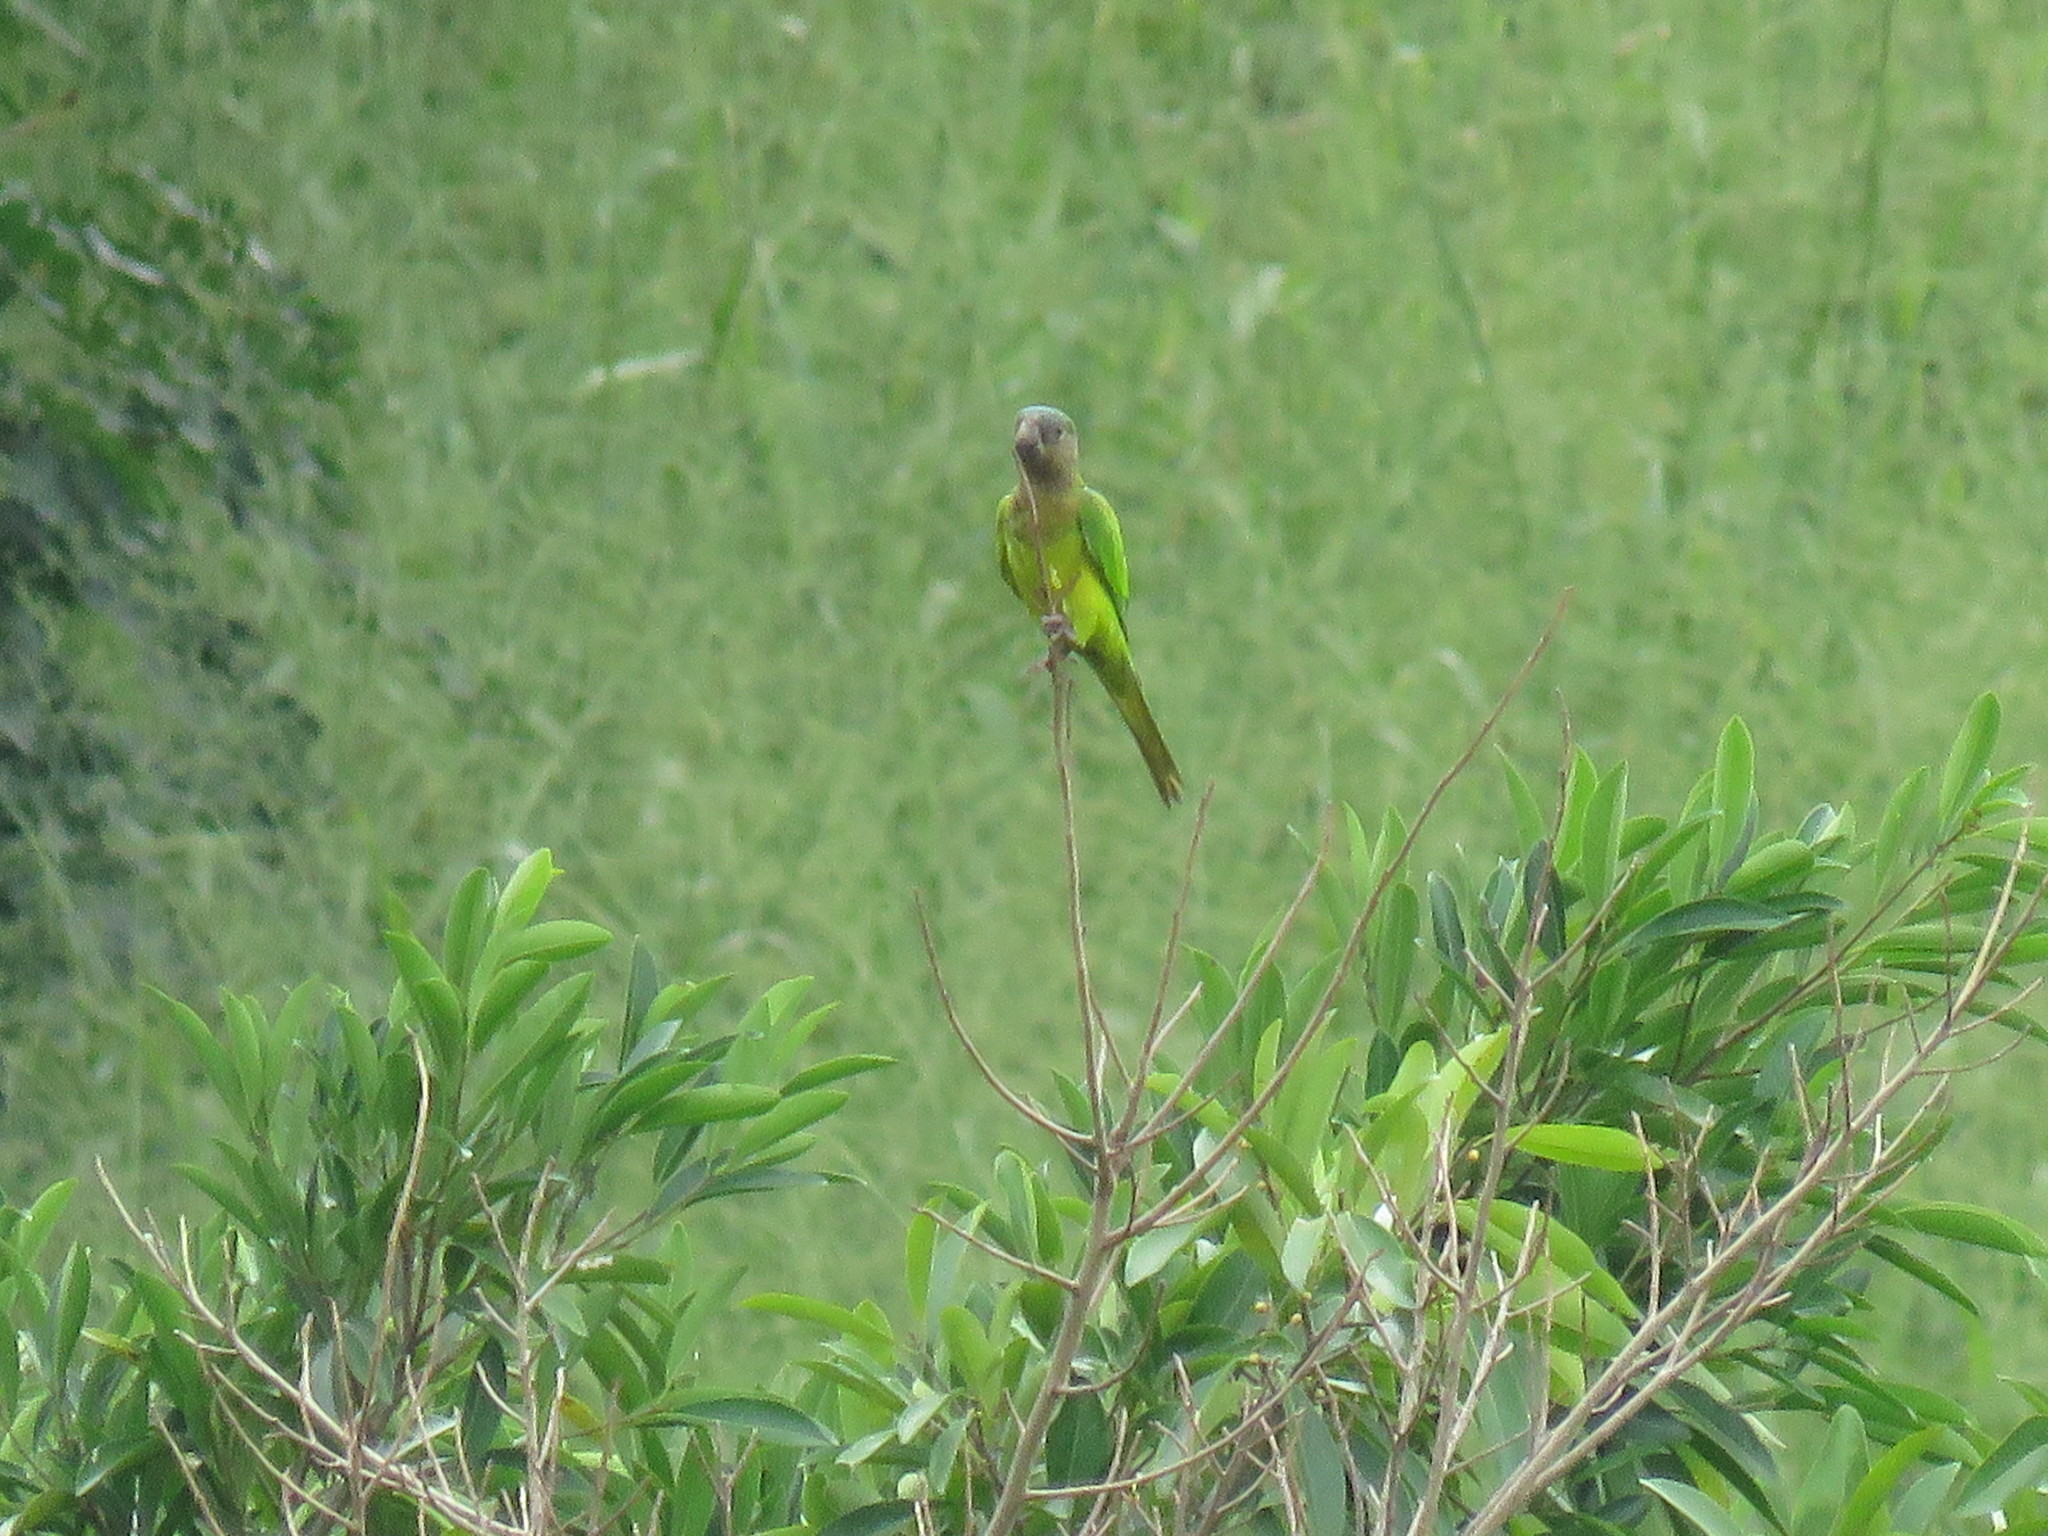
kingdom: Animalia
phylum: Chordata
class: Aves
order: Psittaciformes
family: Psittacidae
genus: Aratinga
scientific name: Aratinga pertinax
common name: Brown-throated parakeet
